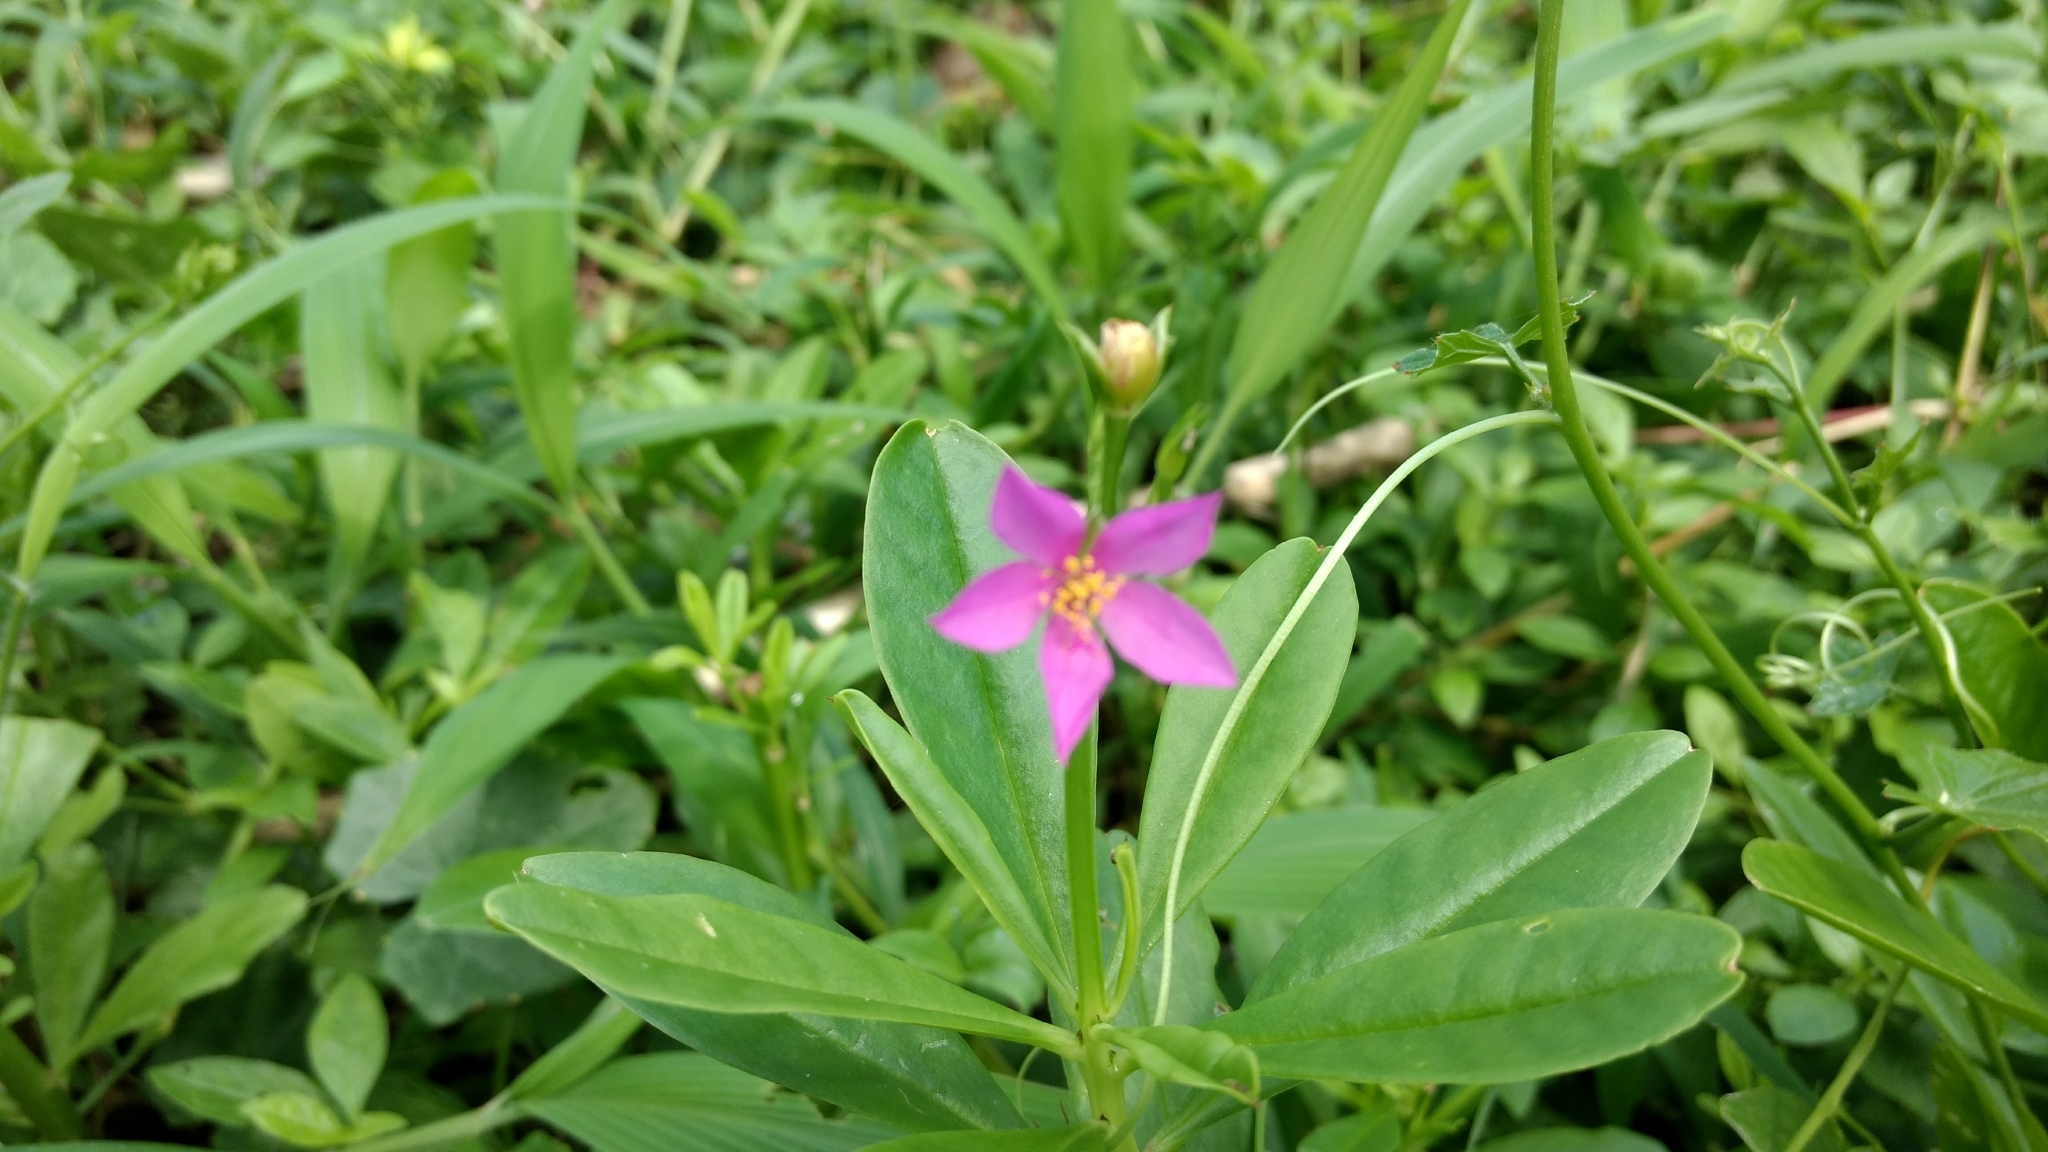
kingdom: Plantae
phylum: Tracheophyta
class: Magnoliopsida
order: Caryophyllales
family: Talinaceae
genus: Talinum
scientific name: Talinum fruticosum
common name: Verdolaga-francesa
